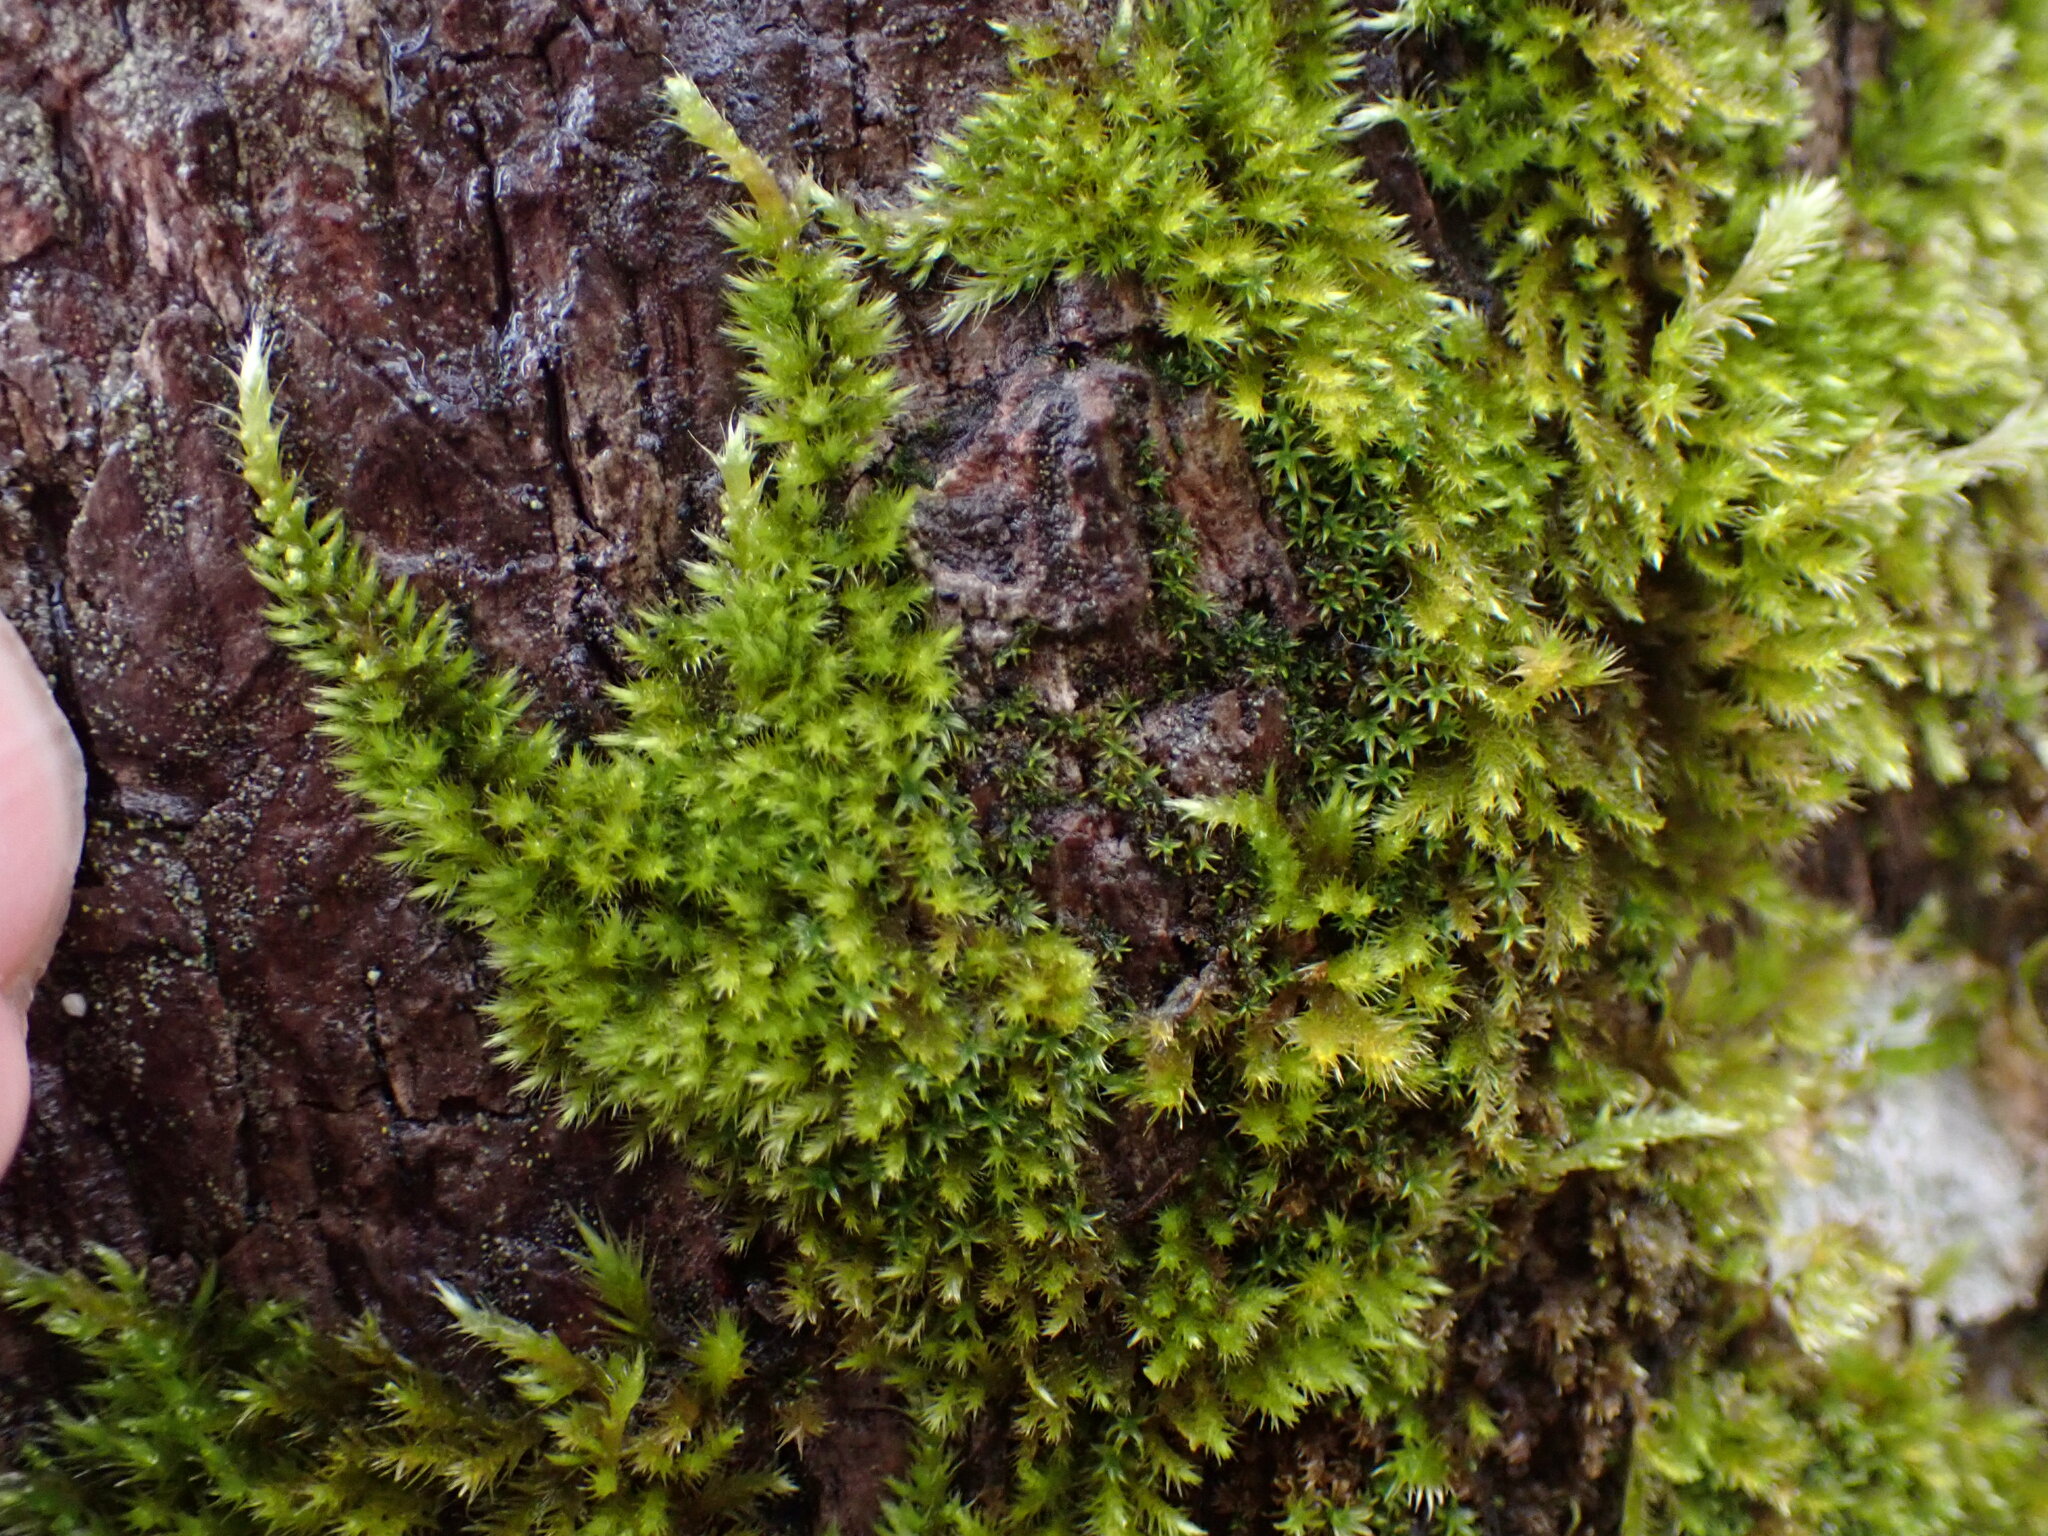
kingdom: Plantae
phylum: Bryophyta
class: Bryopsida
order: Hypnales
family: Brachytheciaceae
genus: Homalothecium
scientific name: Homalothecium nuttallii
